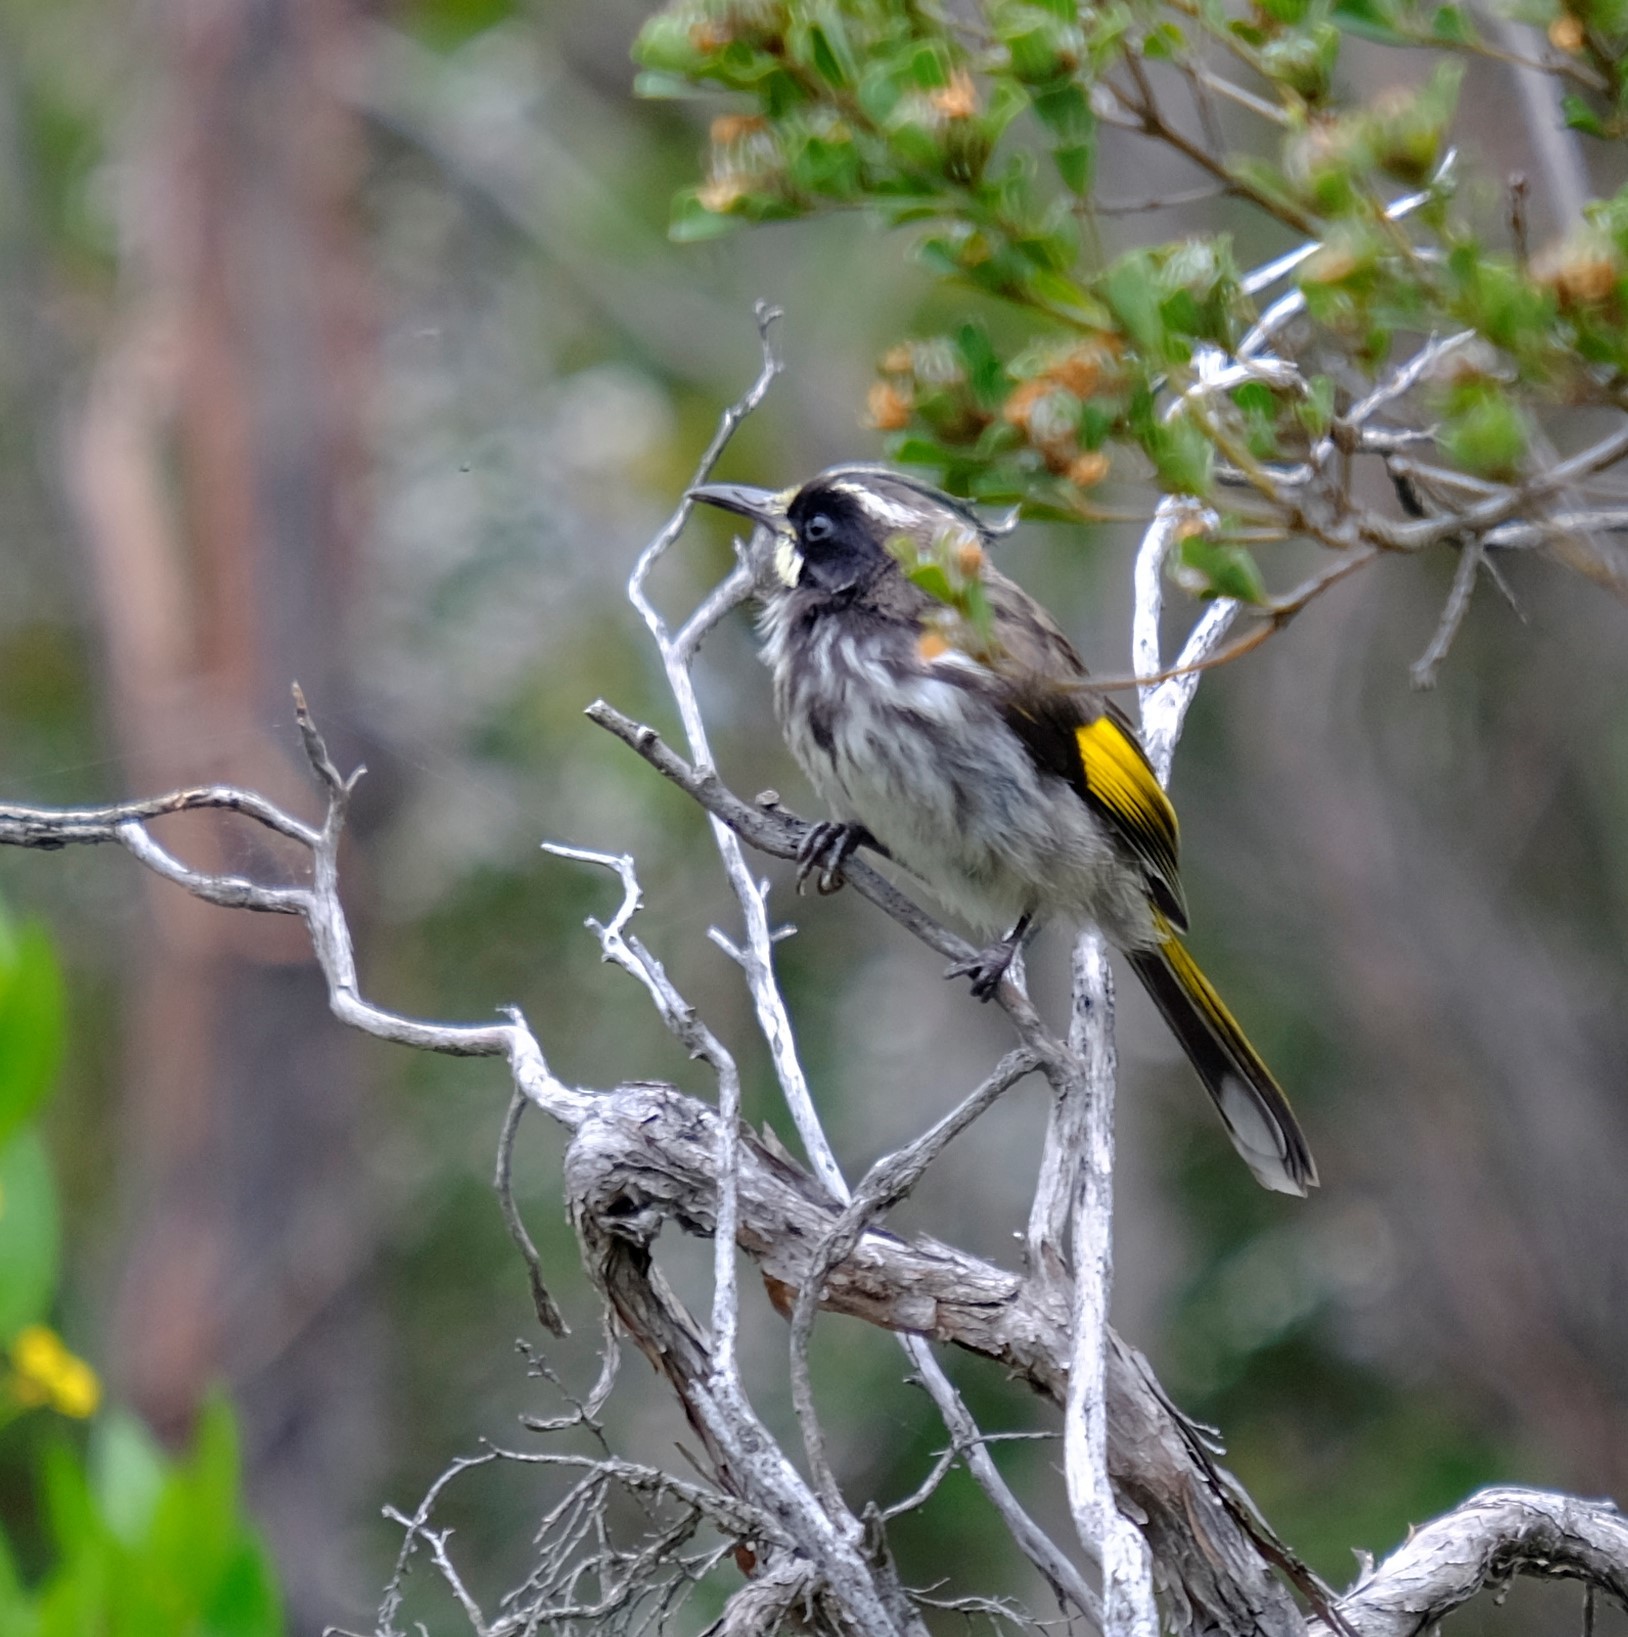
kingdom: Animalia
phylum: Chordata
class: Aves
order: Passeriformes
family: Meliphagidae
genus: Phylidonyris
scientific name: Phylidonyris novaehollandiae
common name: New holland honeyeater
